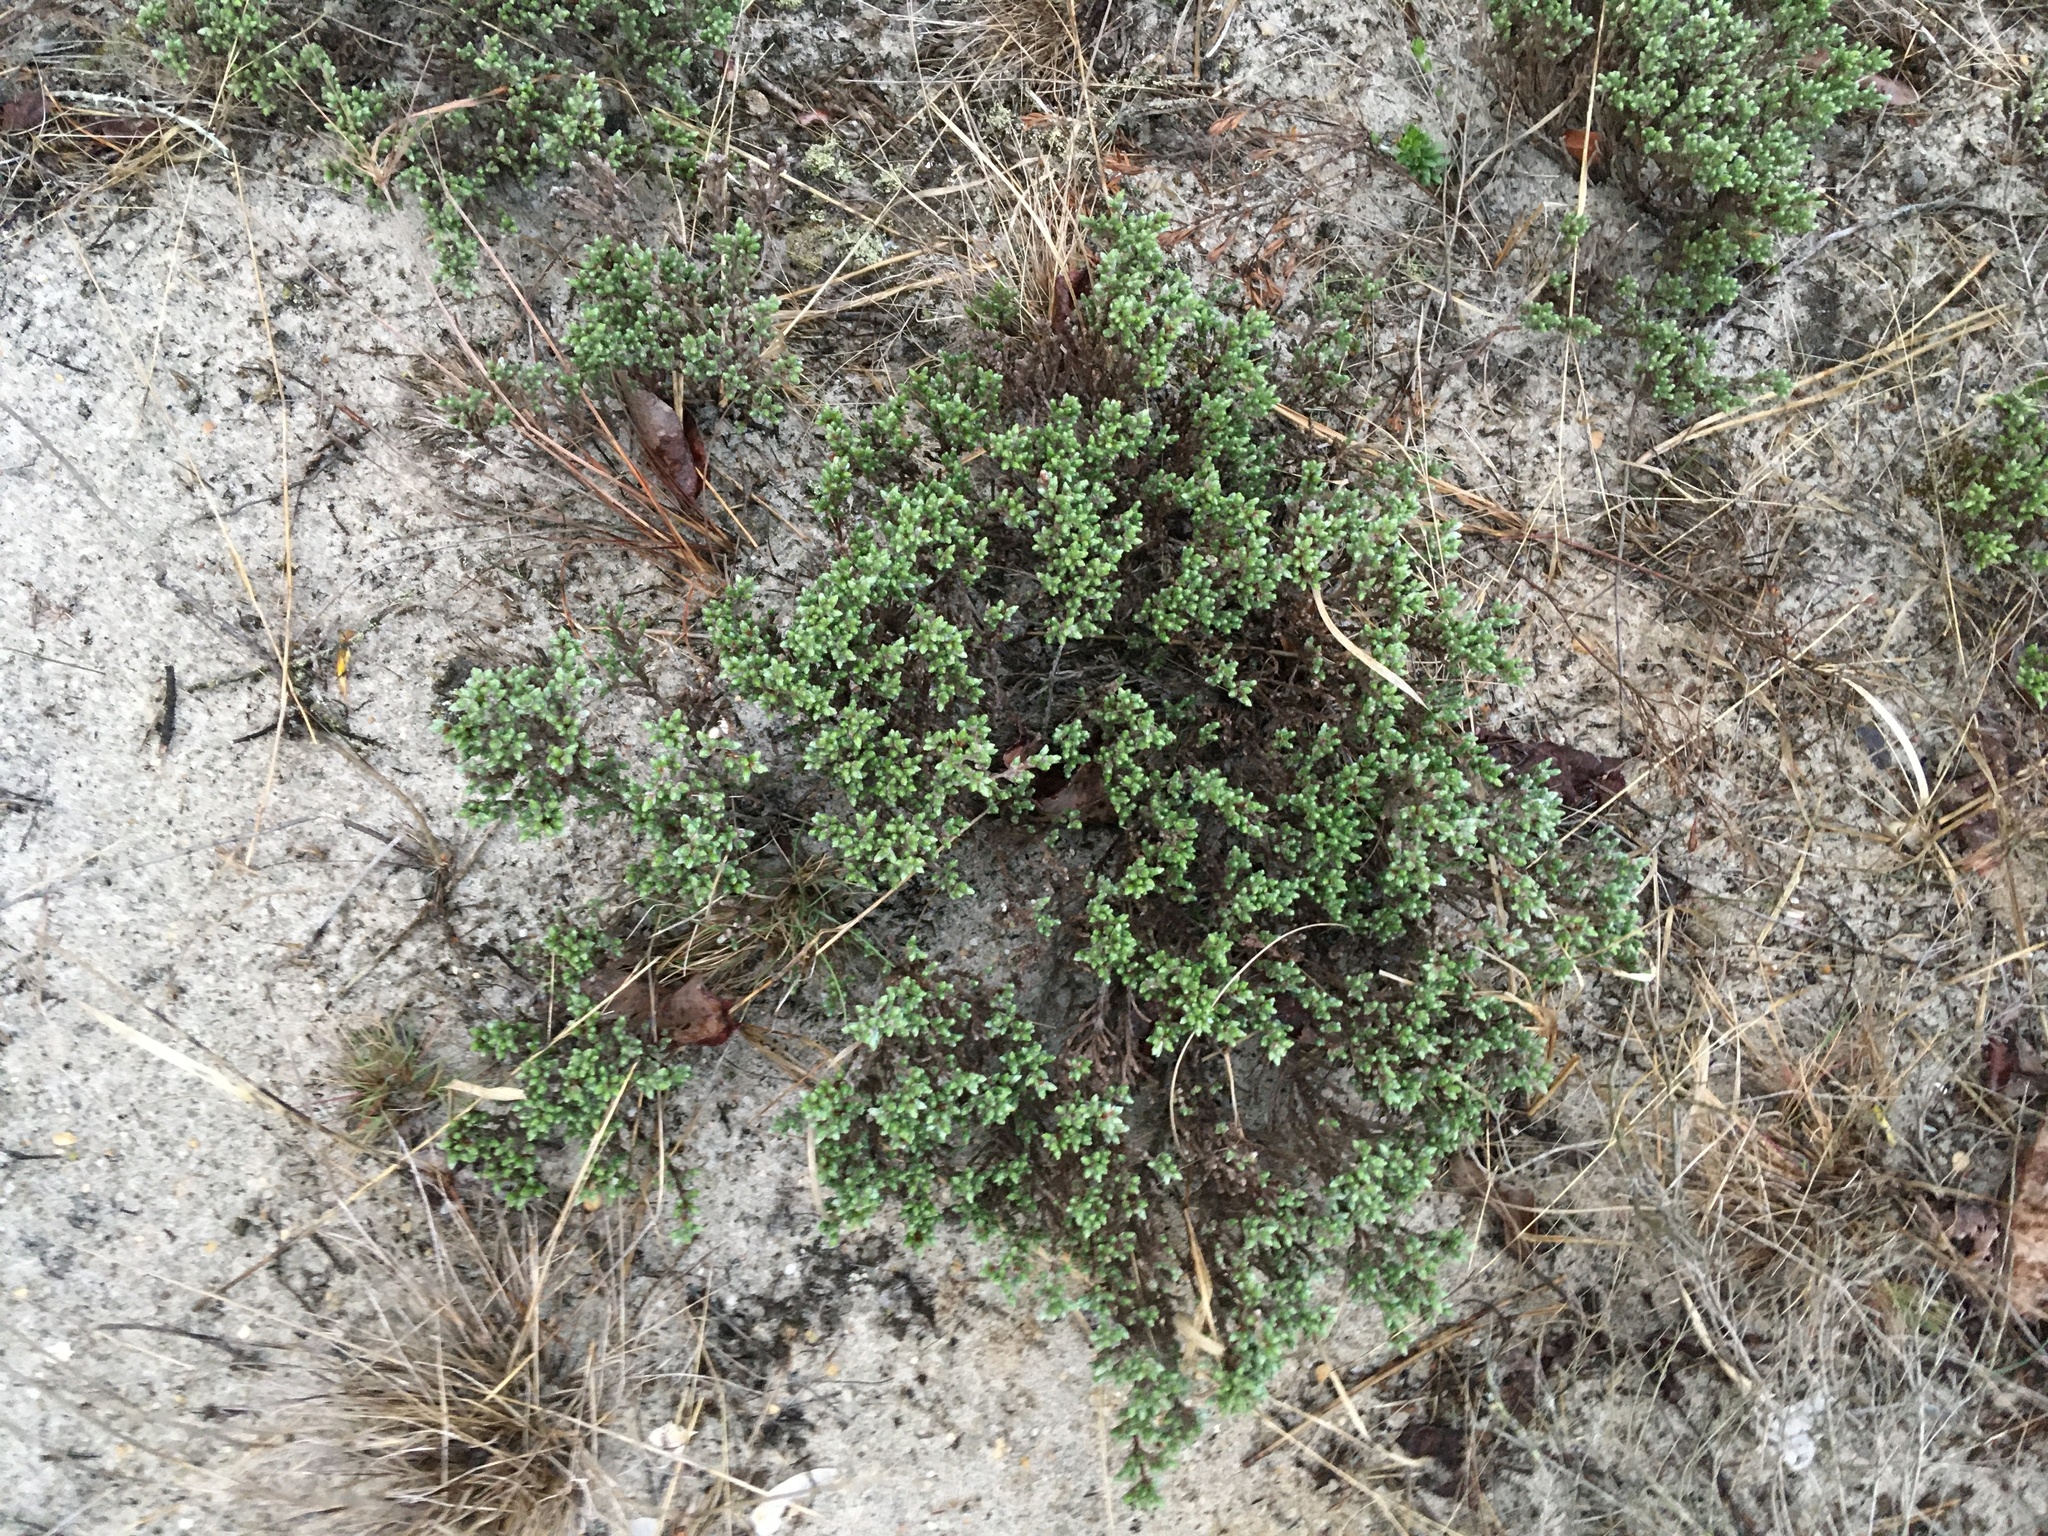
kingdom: Plantae
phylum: Tracheophyta
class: Magnoliopsida
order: Malvales
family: Cistaceae
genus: Hudsonia
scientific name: Hudsonia tomentosa
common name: Beach-heath
